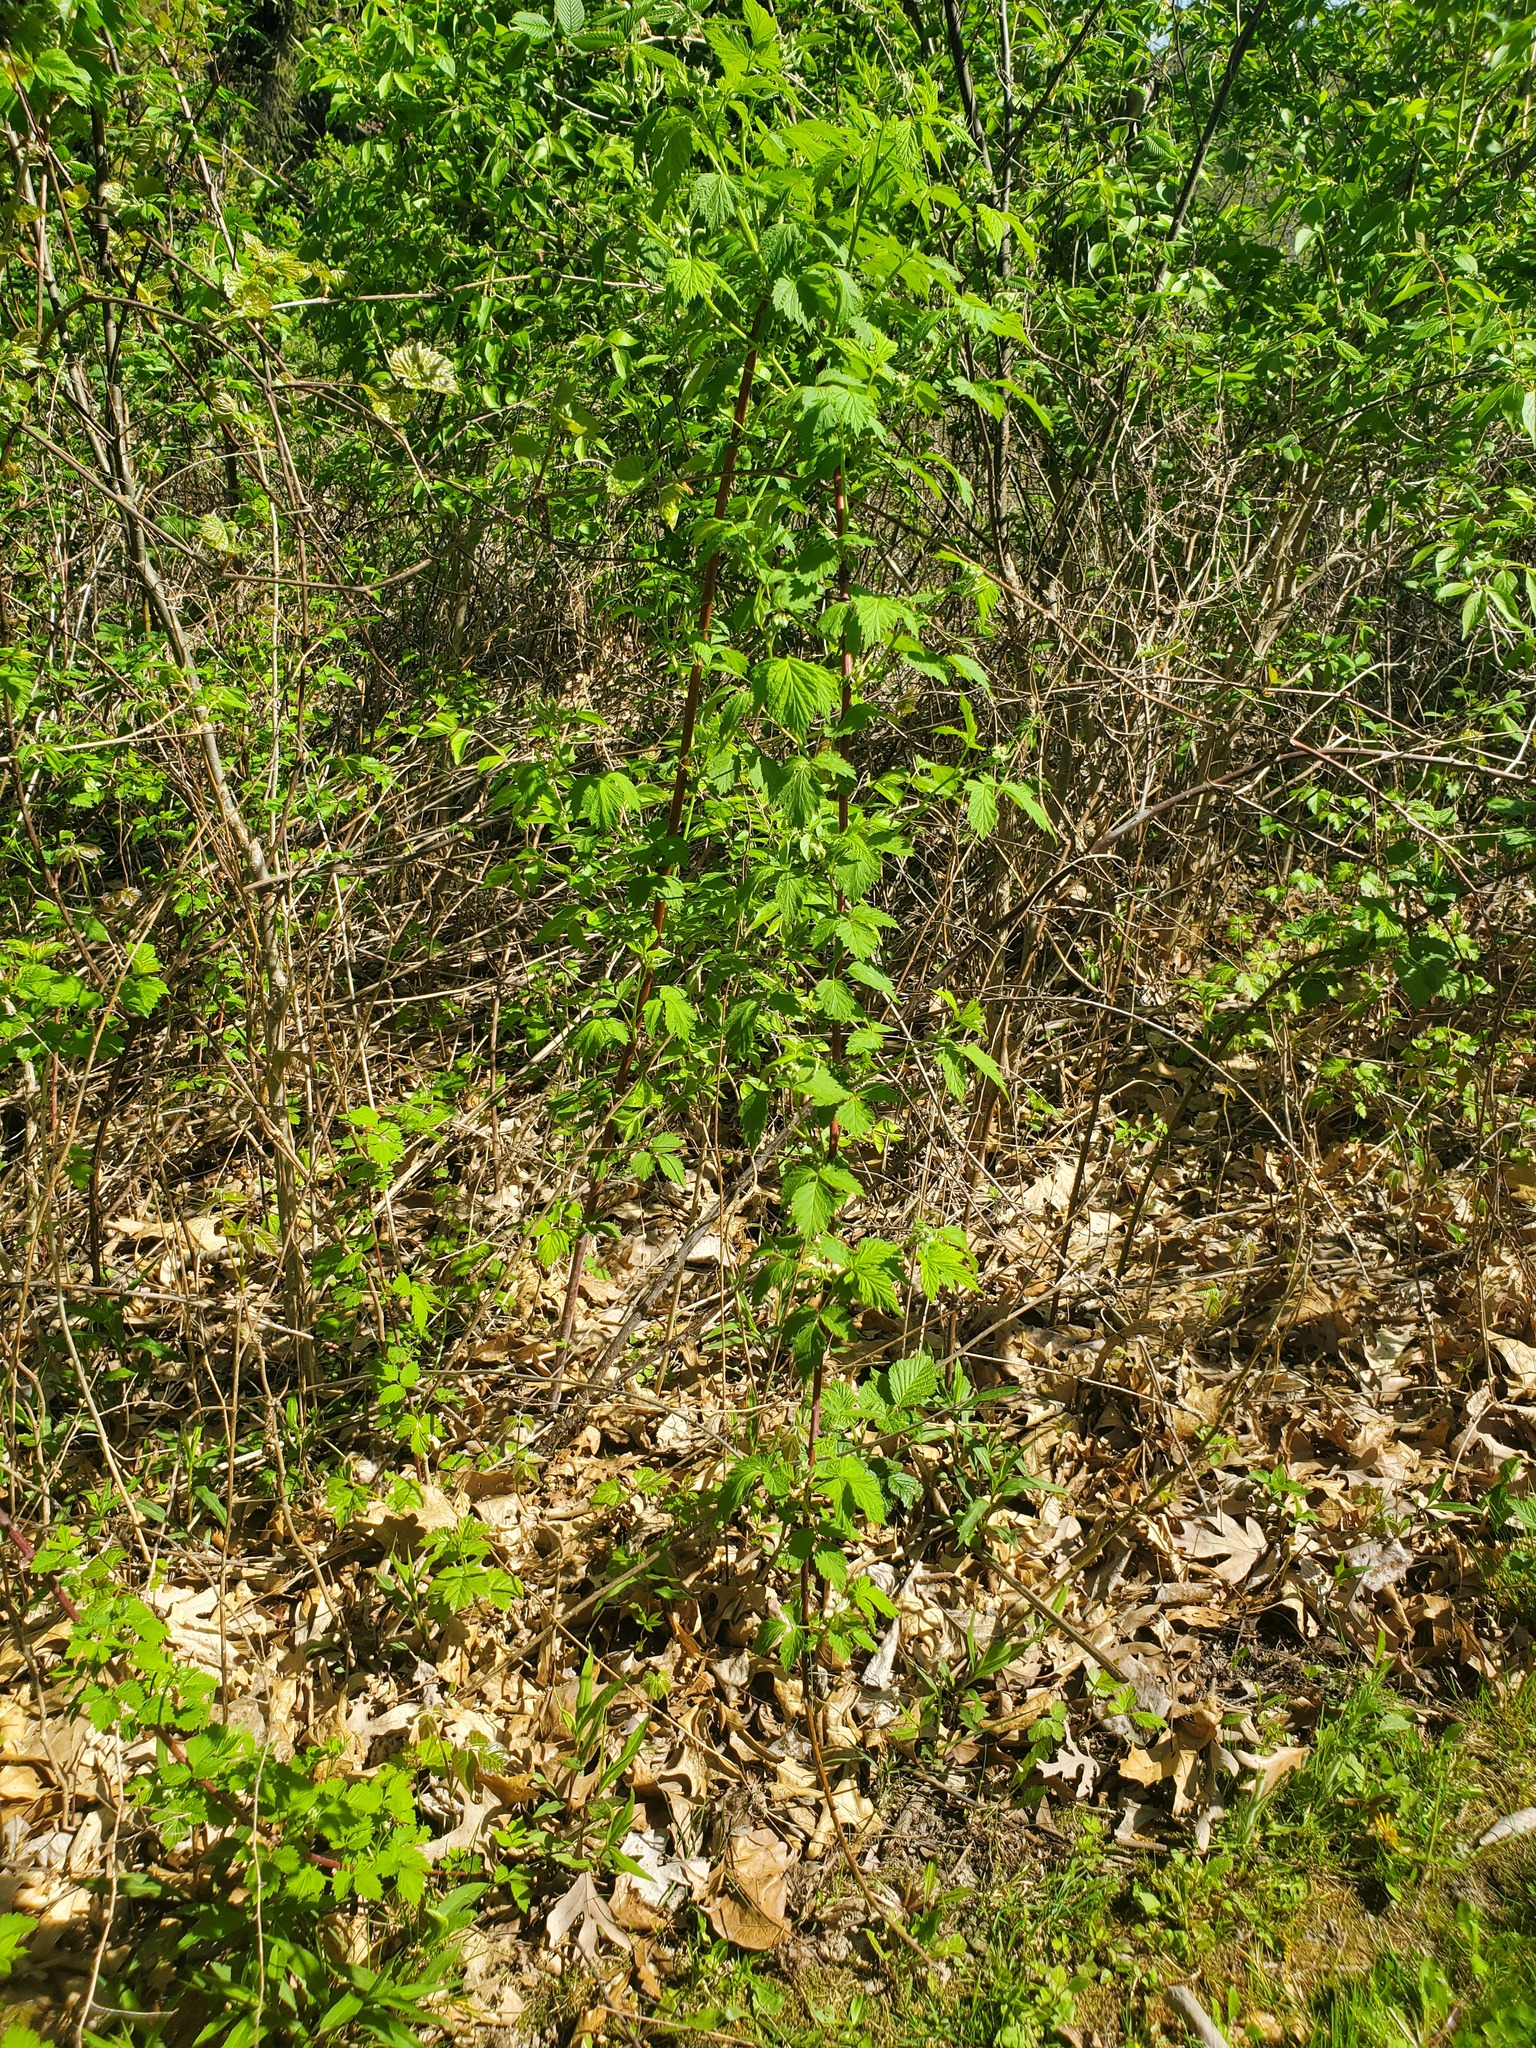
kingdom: Plantae
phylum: Tracheophyta
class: Magnoliopsida
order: Rosales
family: Rosaceae
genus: Rubus
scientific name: Rubus occidentalis
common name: Black raspberry
